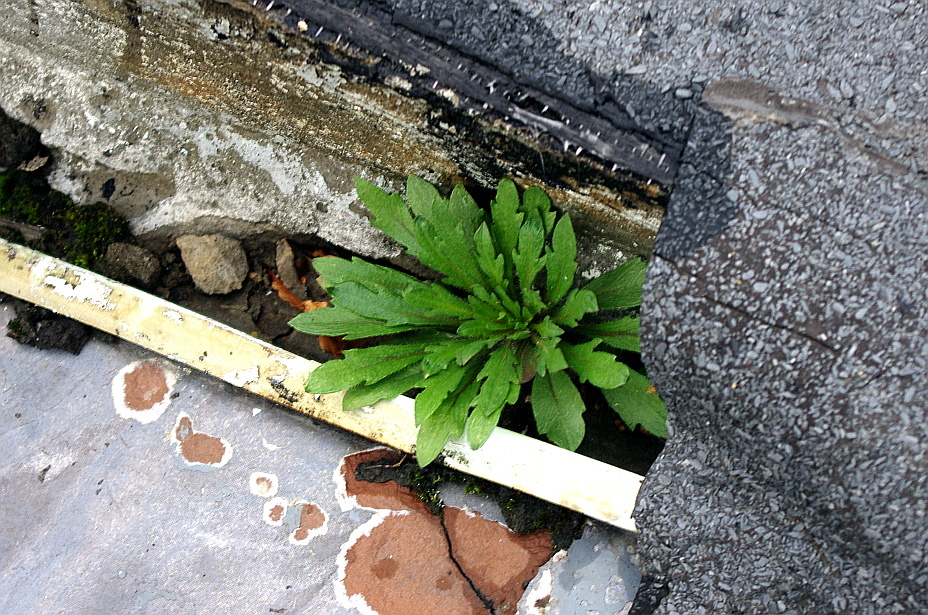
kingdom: Plantae
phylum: Tracheophyta
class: Magnoliopsida
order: Asterales
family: Asteraceae
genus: Erigeron
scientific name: Erigeron canadensis
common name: Canadian fleabane
